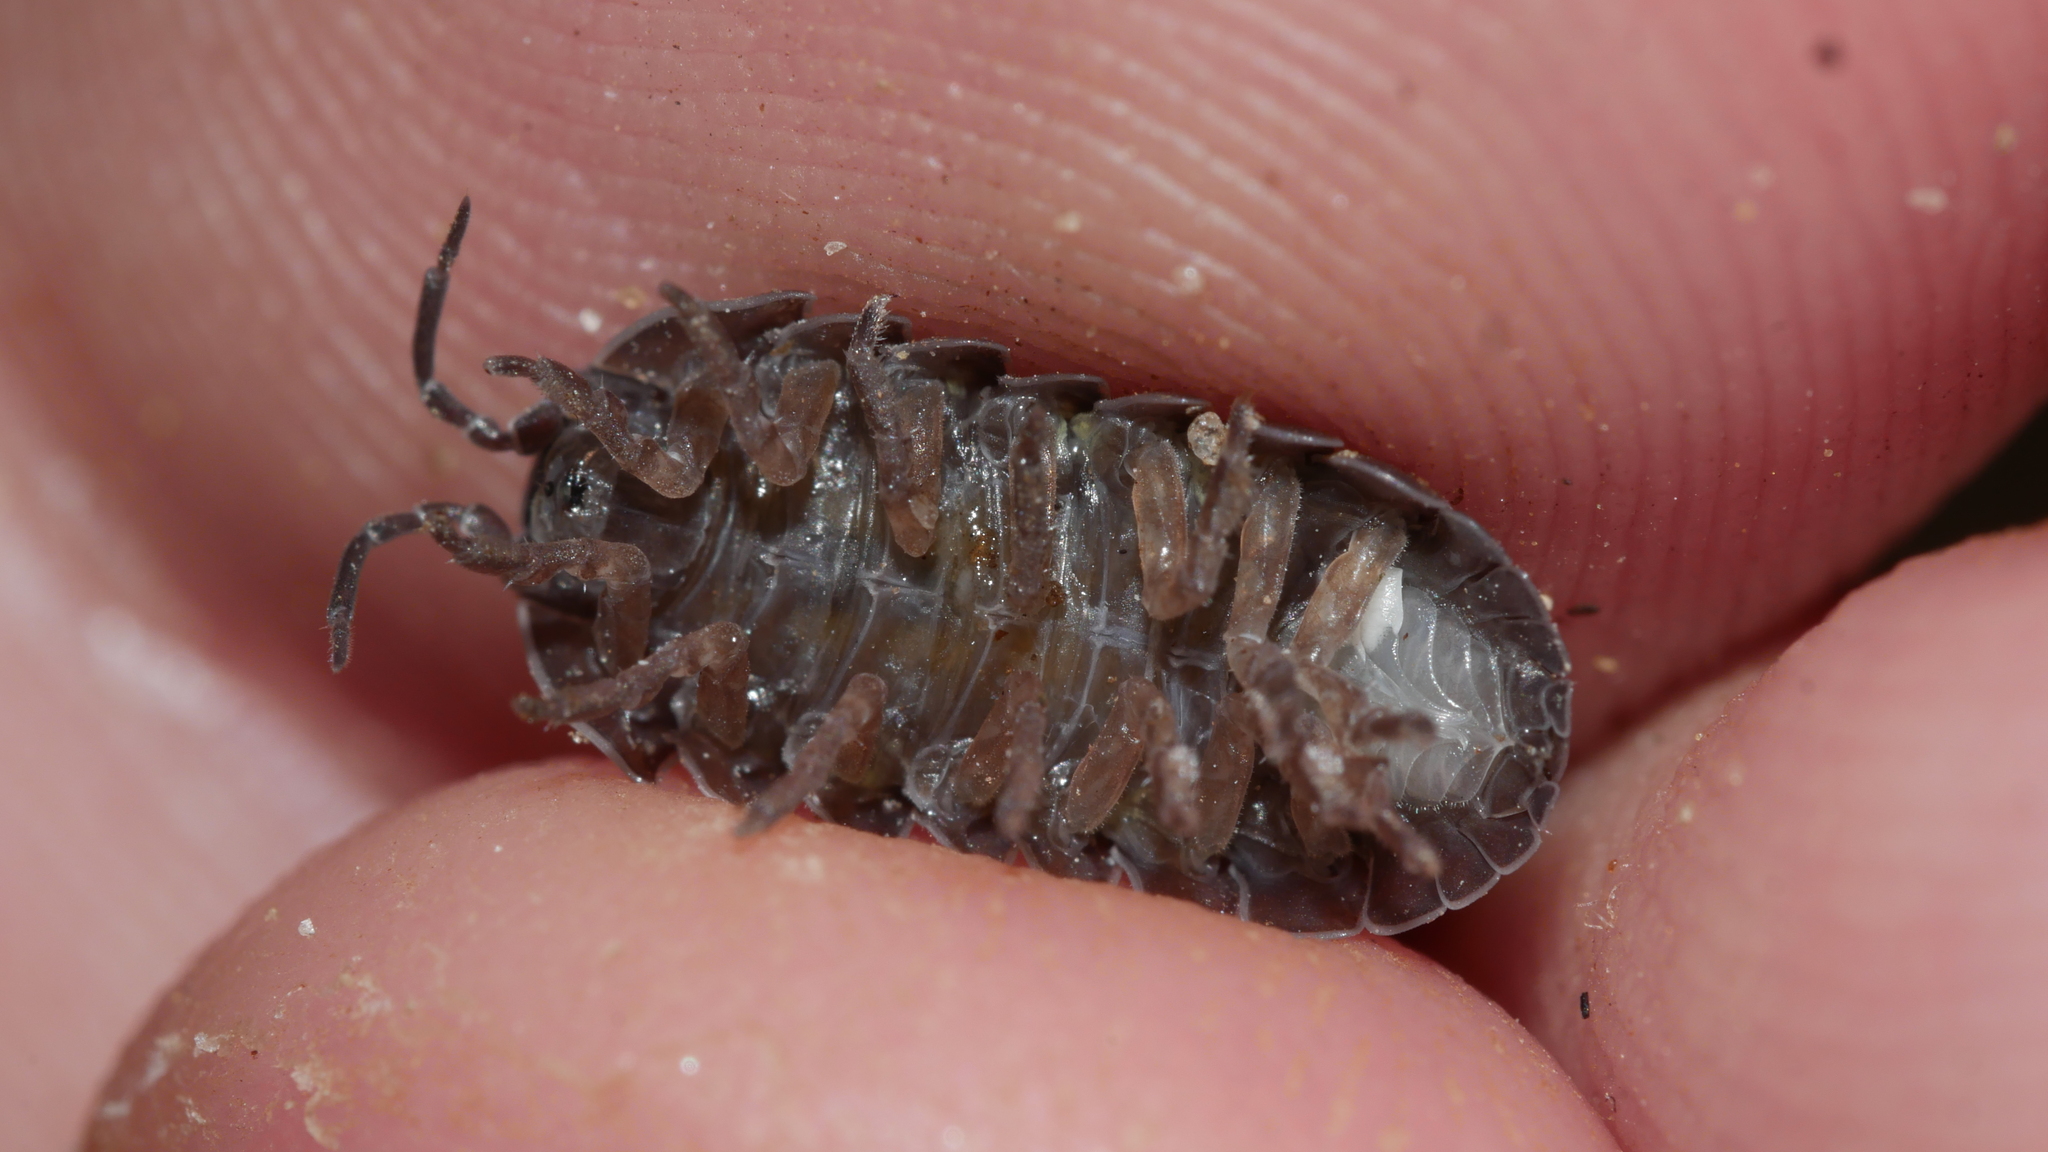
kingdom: Animalia
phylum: Arthropoda
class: Malacostraca
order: Isopoda
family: Armadillidiidae
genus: Armadillidium
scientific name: Armadillidium vulgare
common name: Common pill woodlouse
